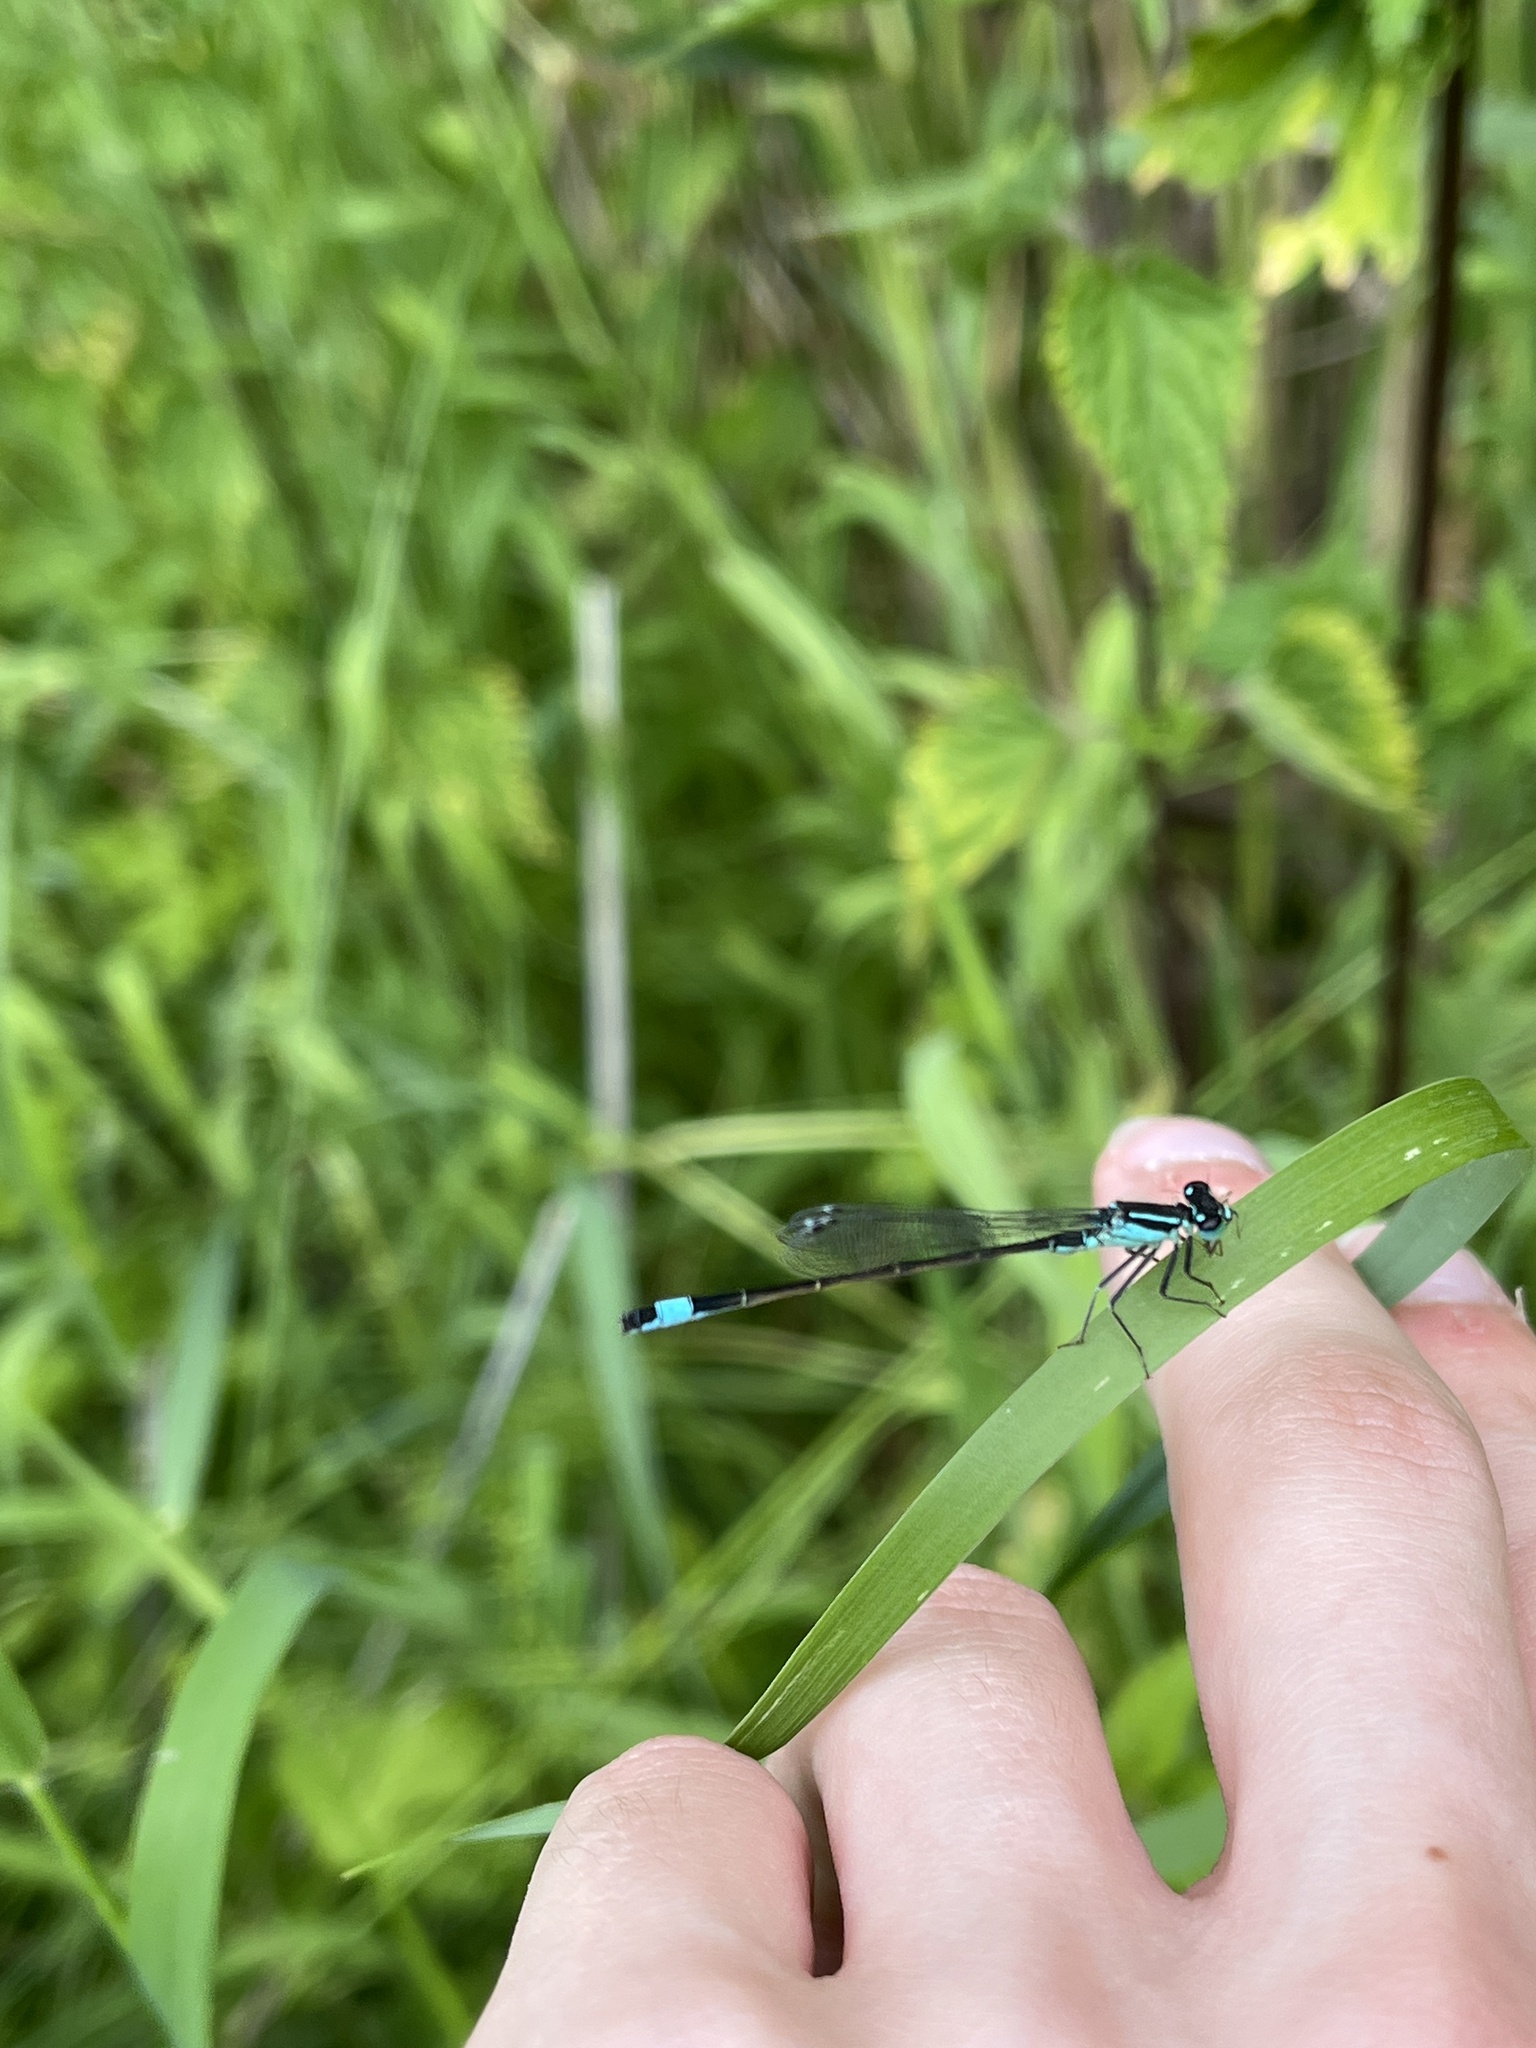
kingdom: Animalia
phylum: Arthropoda
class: Insecta
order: Odonata
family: Coenagrionidae
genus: Ischnura
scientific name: Ischnura elegans
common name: Blue-tailed damselfly
